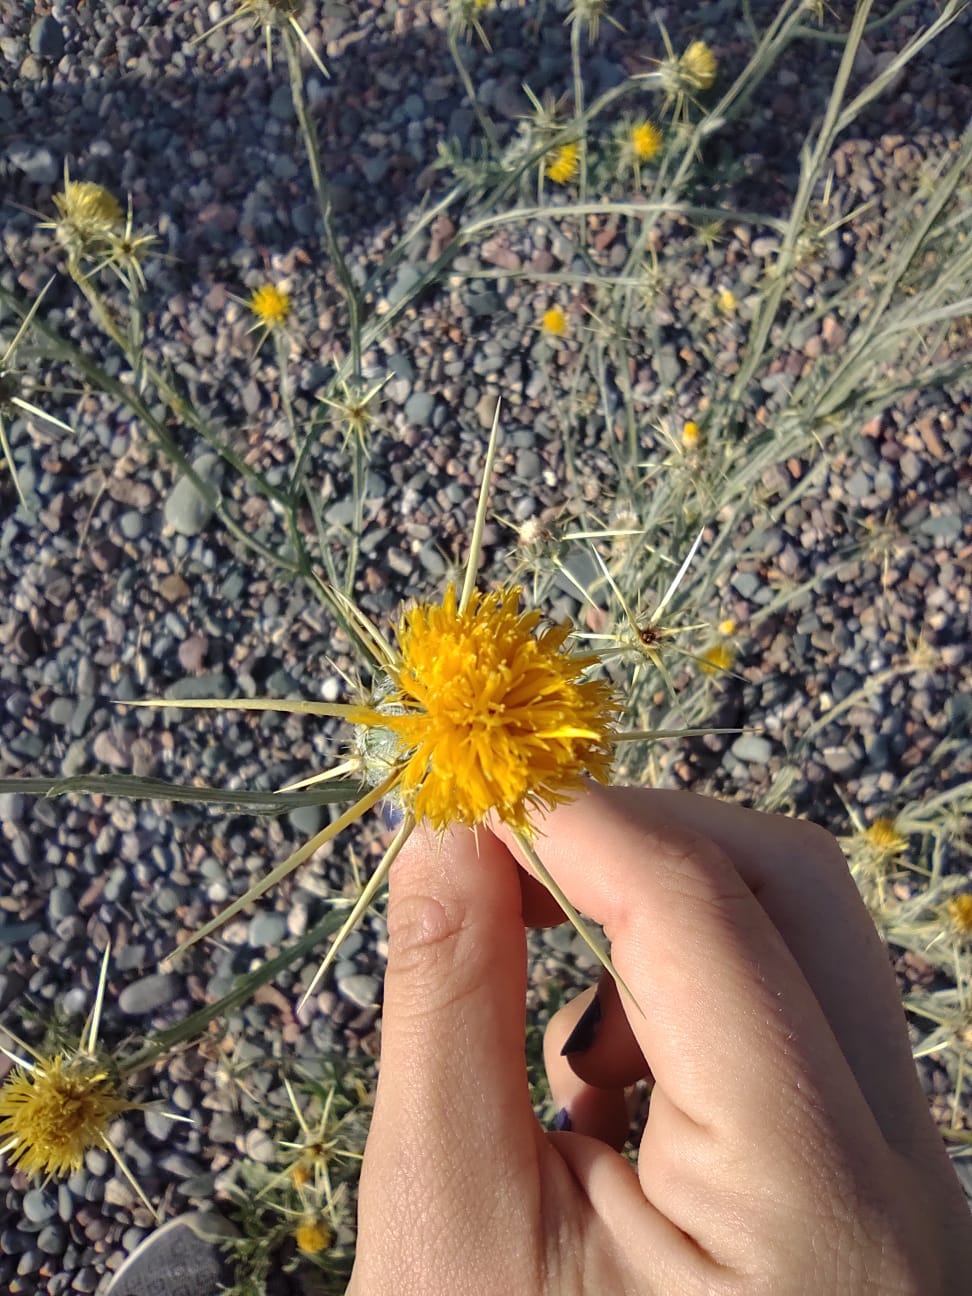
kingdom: Plantae
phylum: Tracheophyta
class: Magnoliopsida
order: Asterales
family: Asteraceae
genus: Centaurea
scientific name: Centaurea solstitialis
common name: Yellow star-thistle
